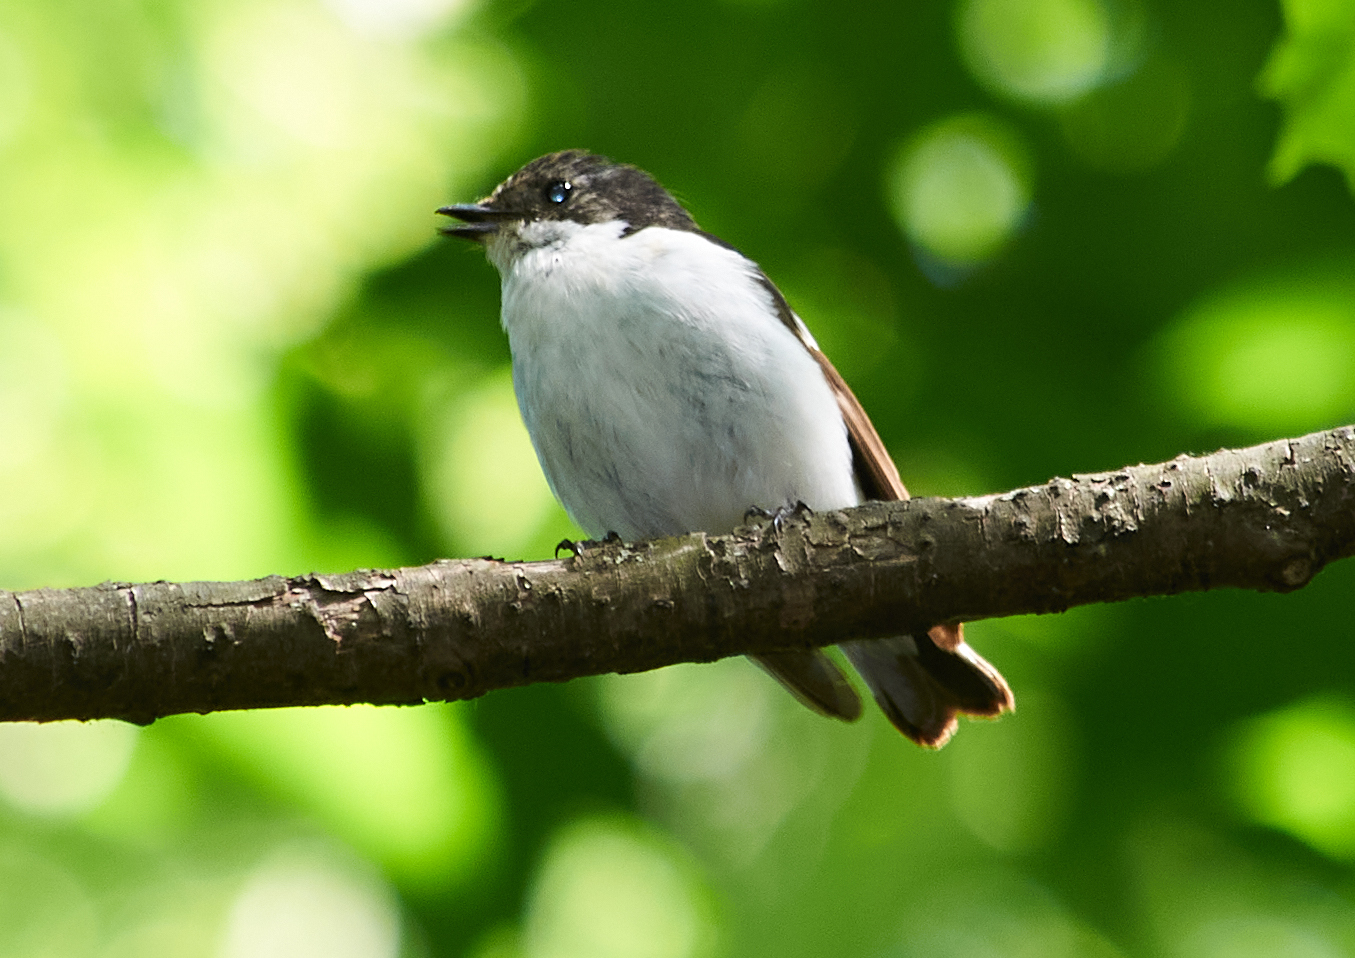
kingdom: Animalia
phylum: Chordata
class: Aves
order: Passeriformes
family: Muscicapidae
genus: Ficedula
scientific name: Ficedula hypoleuca
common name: European pied flycatcher
